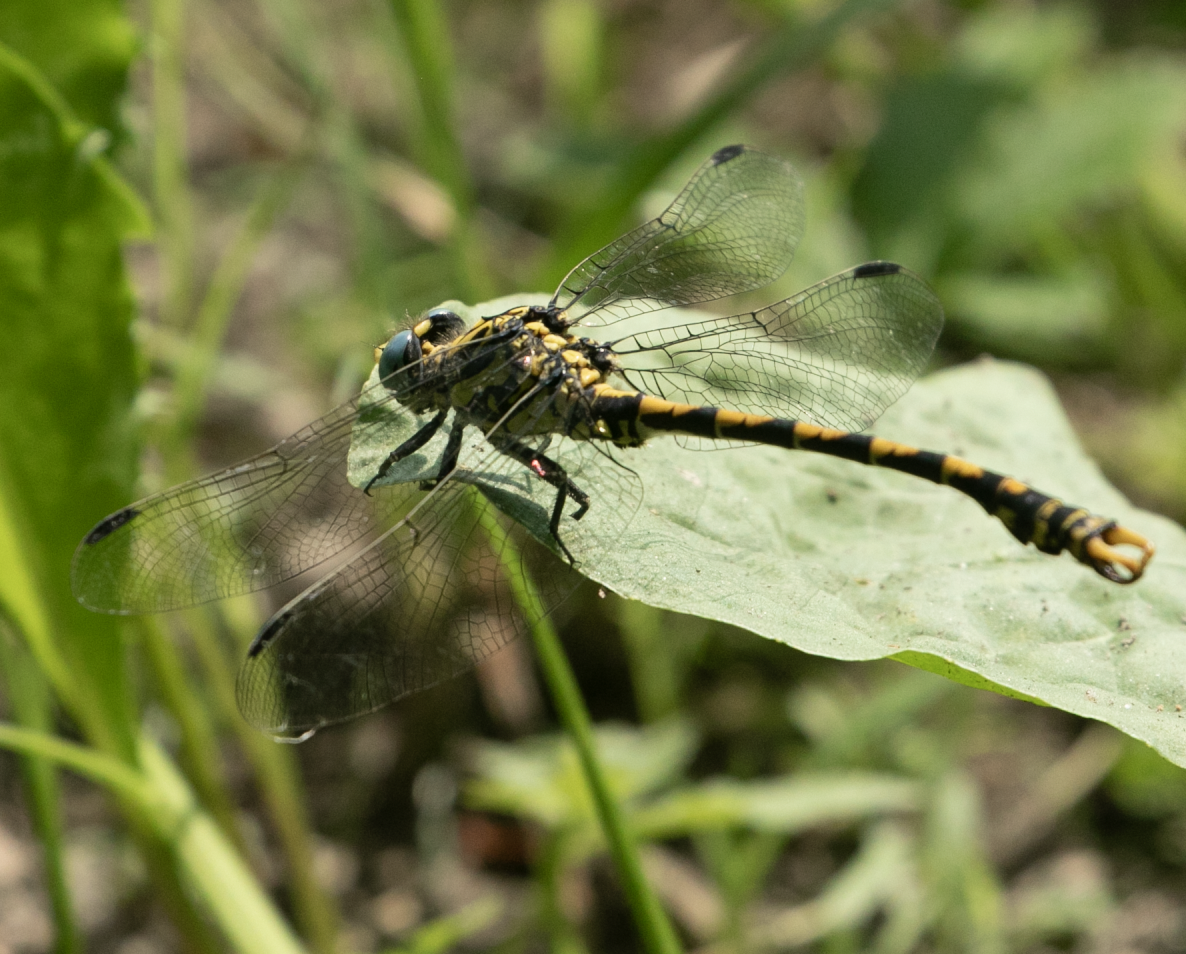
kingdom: Animalia
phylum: Arthropoda
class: Insecta
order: Odonata
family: Gomphidae
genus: Onychogomphus
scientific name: Onychogomphus uncatus
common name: Large pincertail
